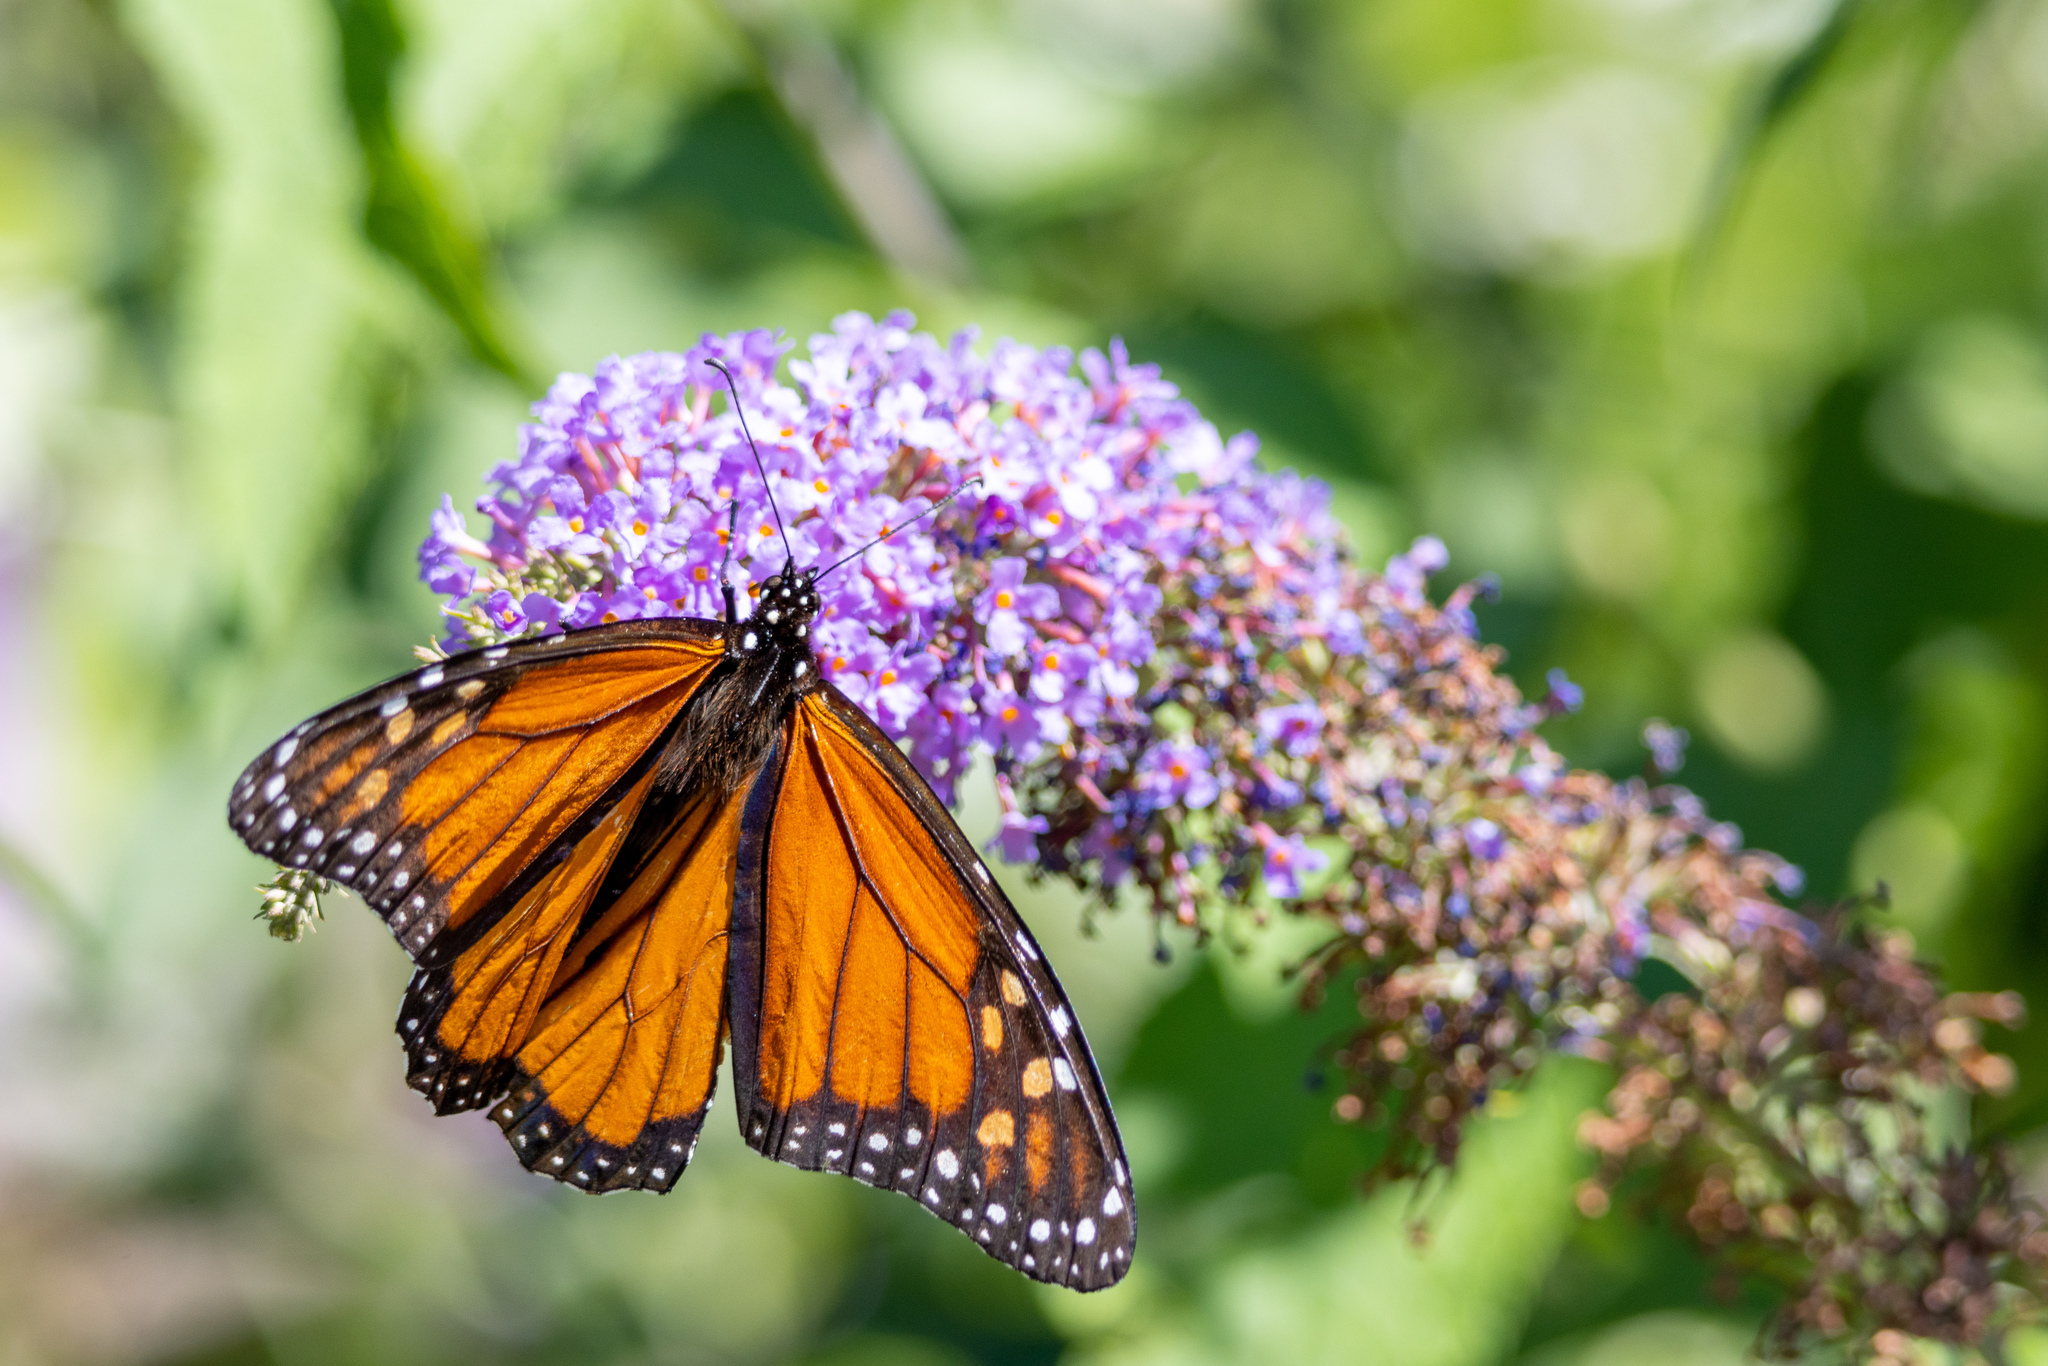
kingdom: Animalia
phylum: Arthropoda
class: Insecta
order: Lepidoptera
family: Nymphalidae
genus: Danaus
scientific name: Danaus plexippus
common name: Monarch
